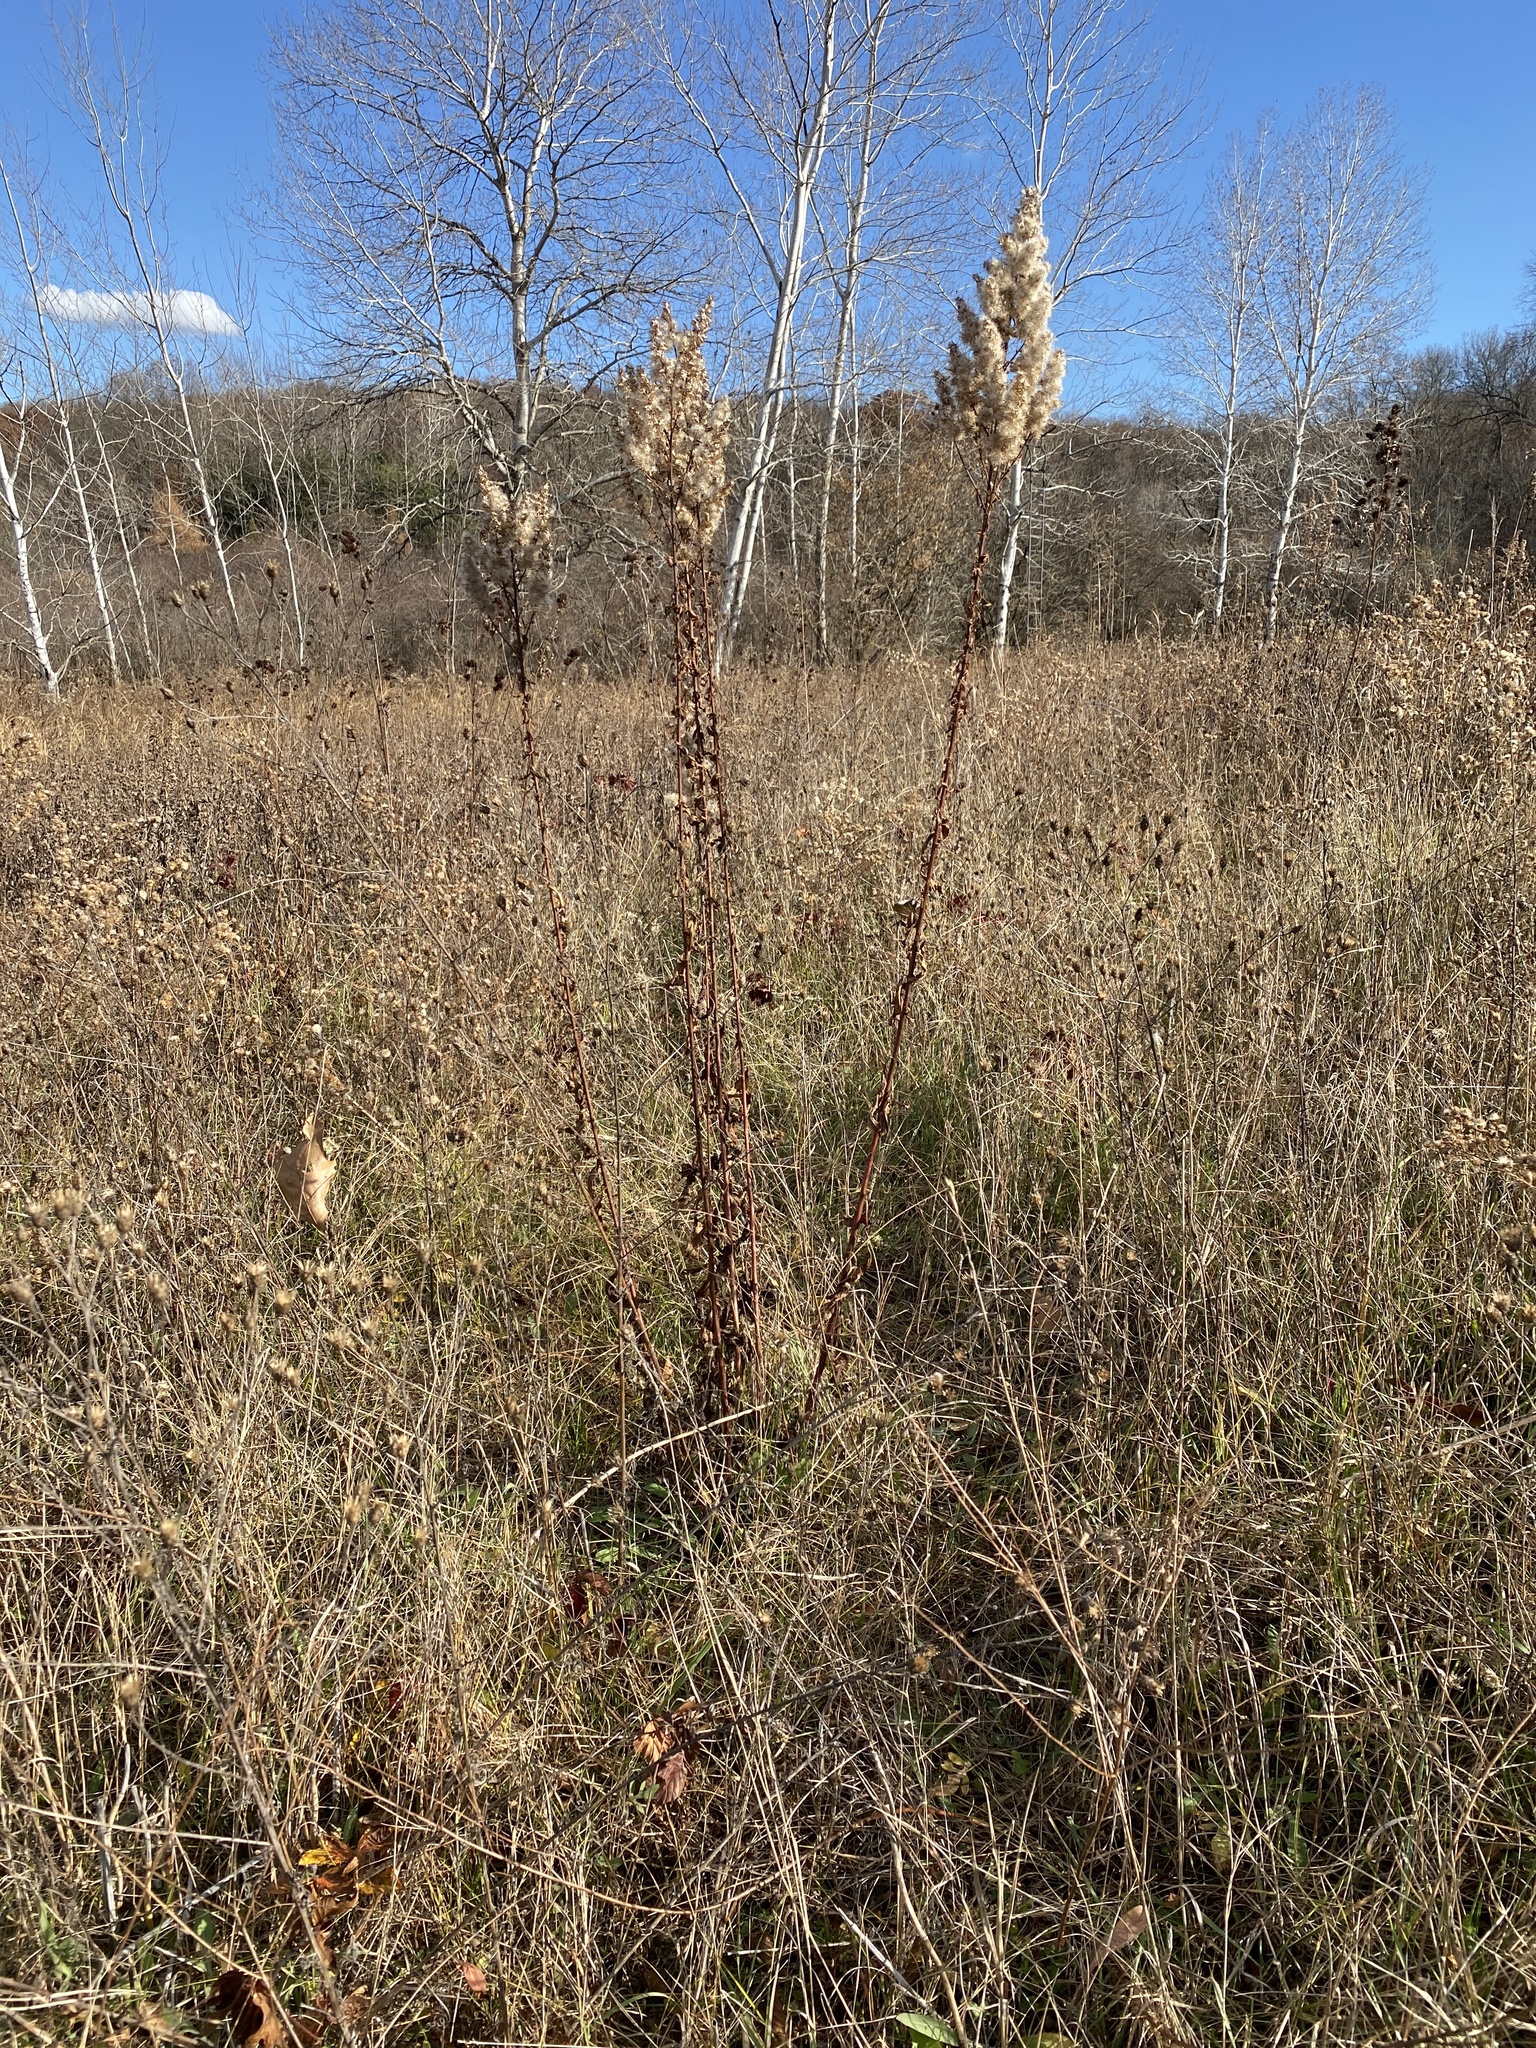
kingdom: Plantae
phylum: Tracheophyta
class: Magnoliopsida
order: Asterales
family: Asteraceae
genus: Solidago
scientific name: Solidago rigidiuscula
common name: Stiff-leaved showy goldenrod
